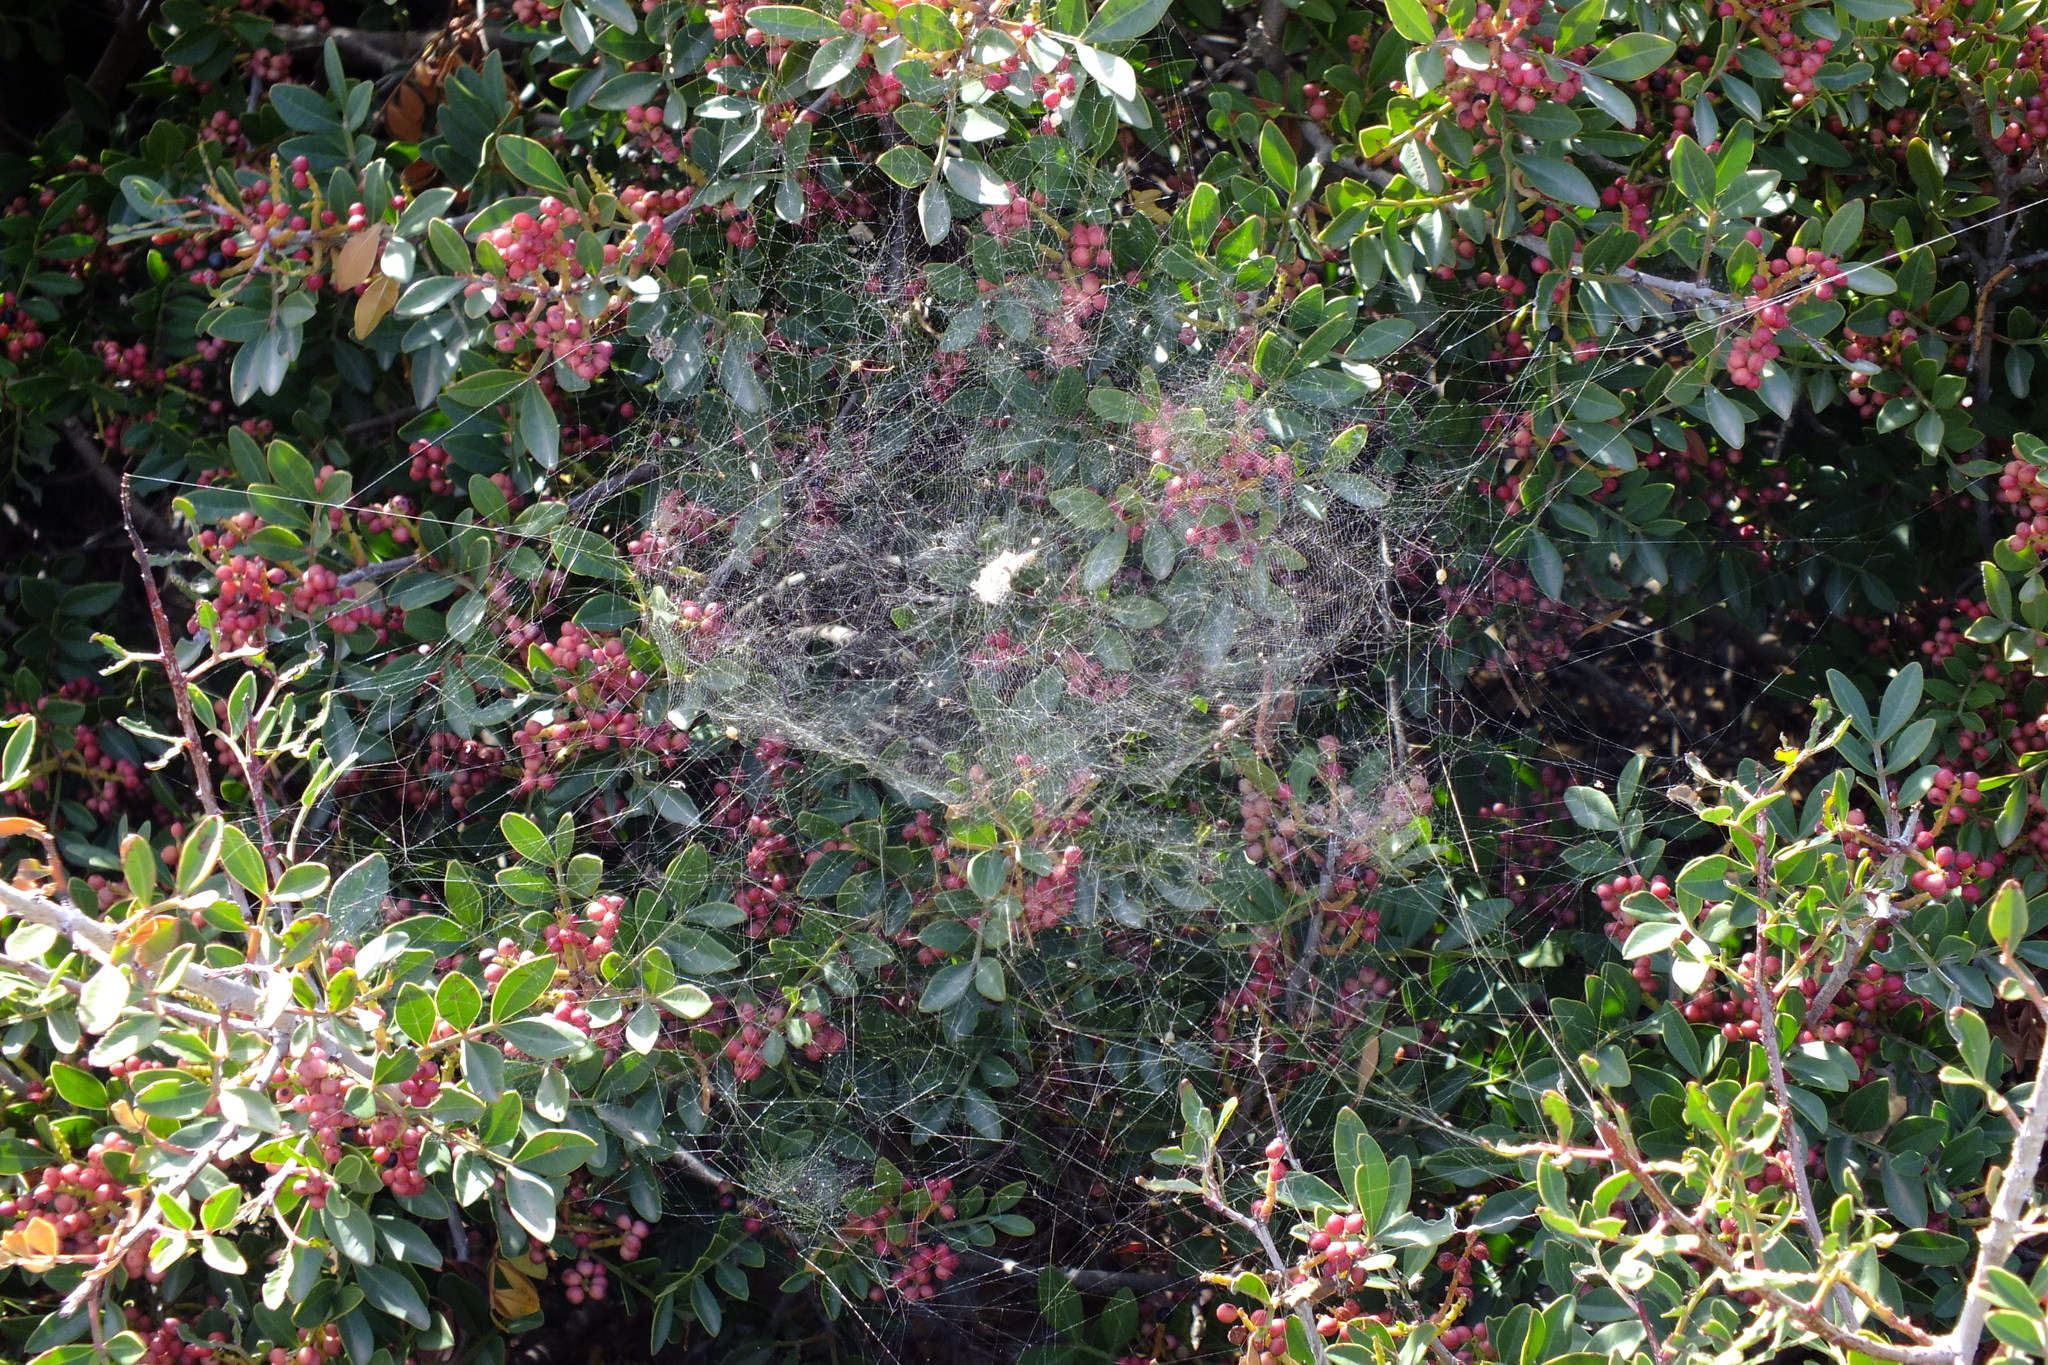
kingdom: Plantae
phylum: Tracheophyta
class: Magnoliopsida
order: Sapindales
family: Anacardiaceae
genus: Pistacia
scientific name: Pistacia lentiscus
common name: Lentisk
